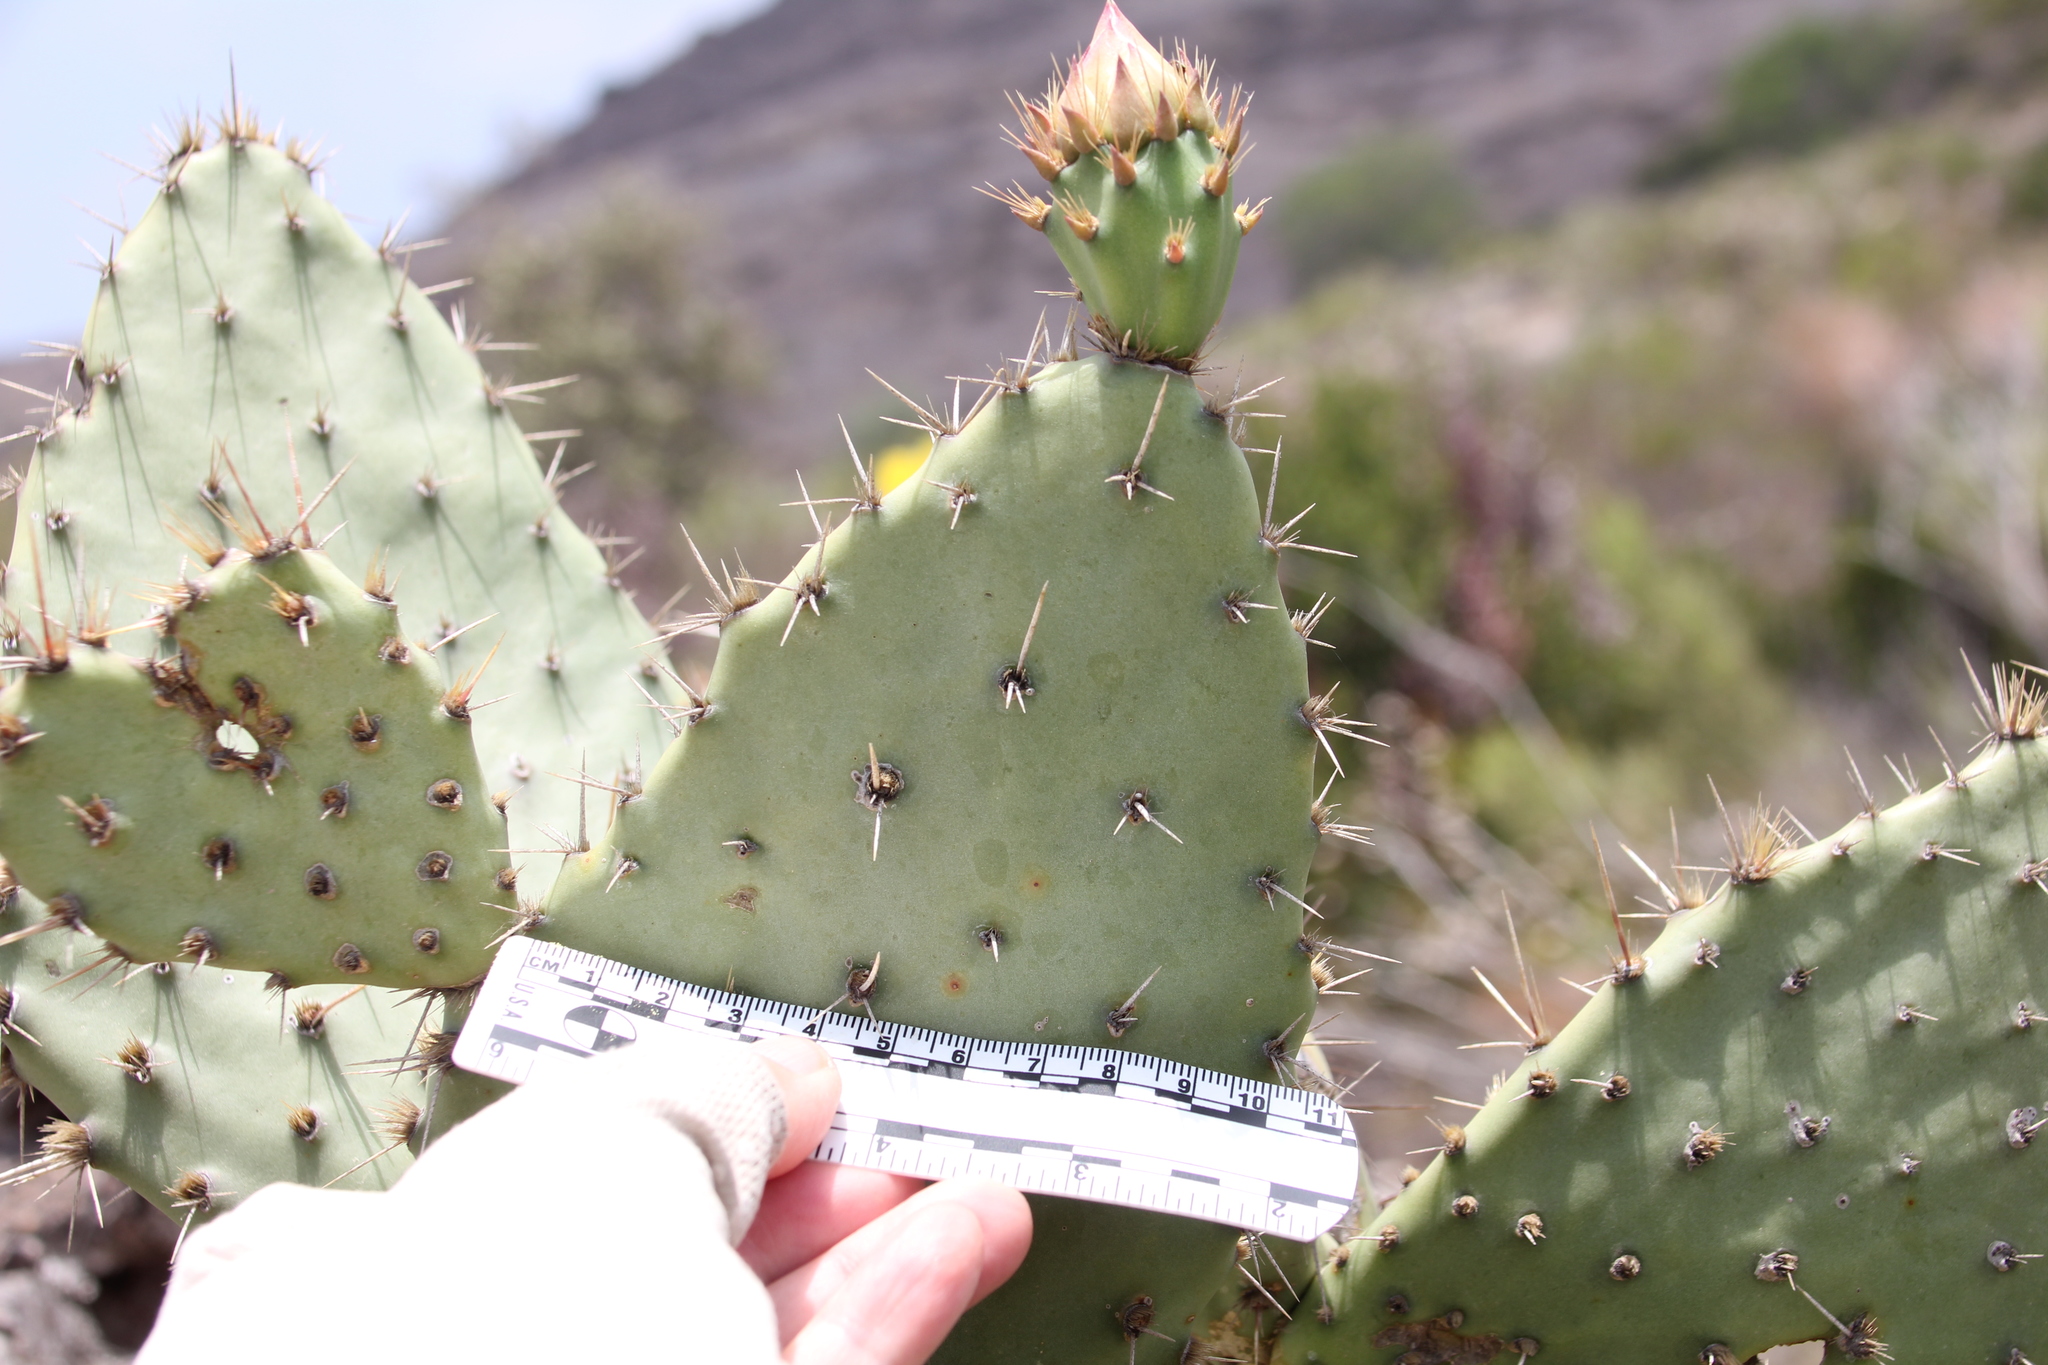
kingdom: Plantae
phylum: Tracheophyta
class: Magnoliopsida
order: Caryophyllales
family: Cactaceae
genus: Opuntia
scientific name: Opuntia littoralis
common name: Coastal prickly-pear
